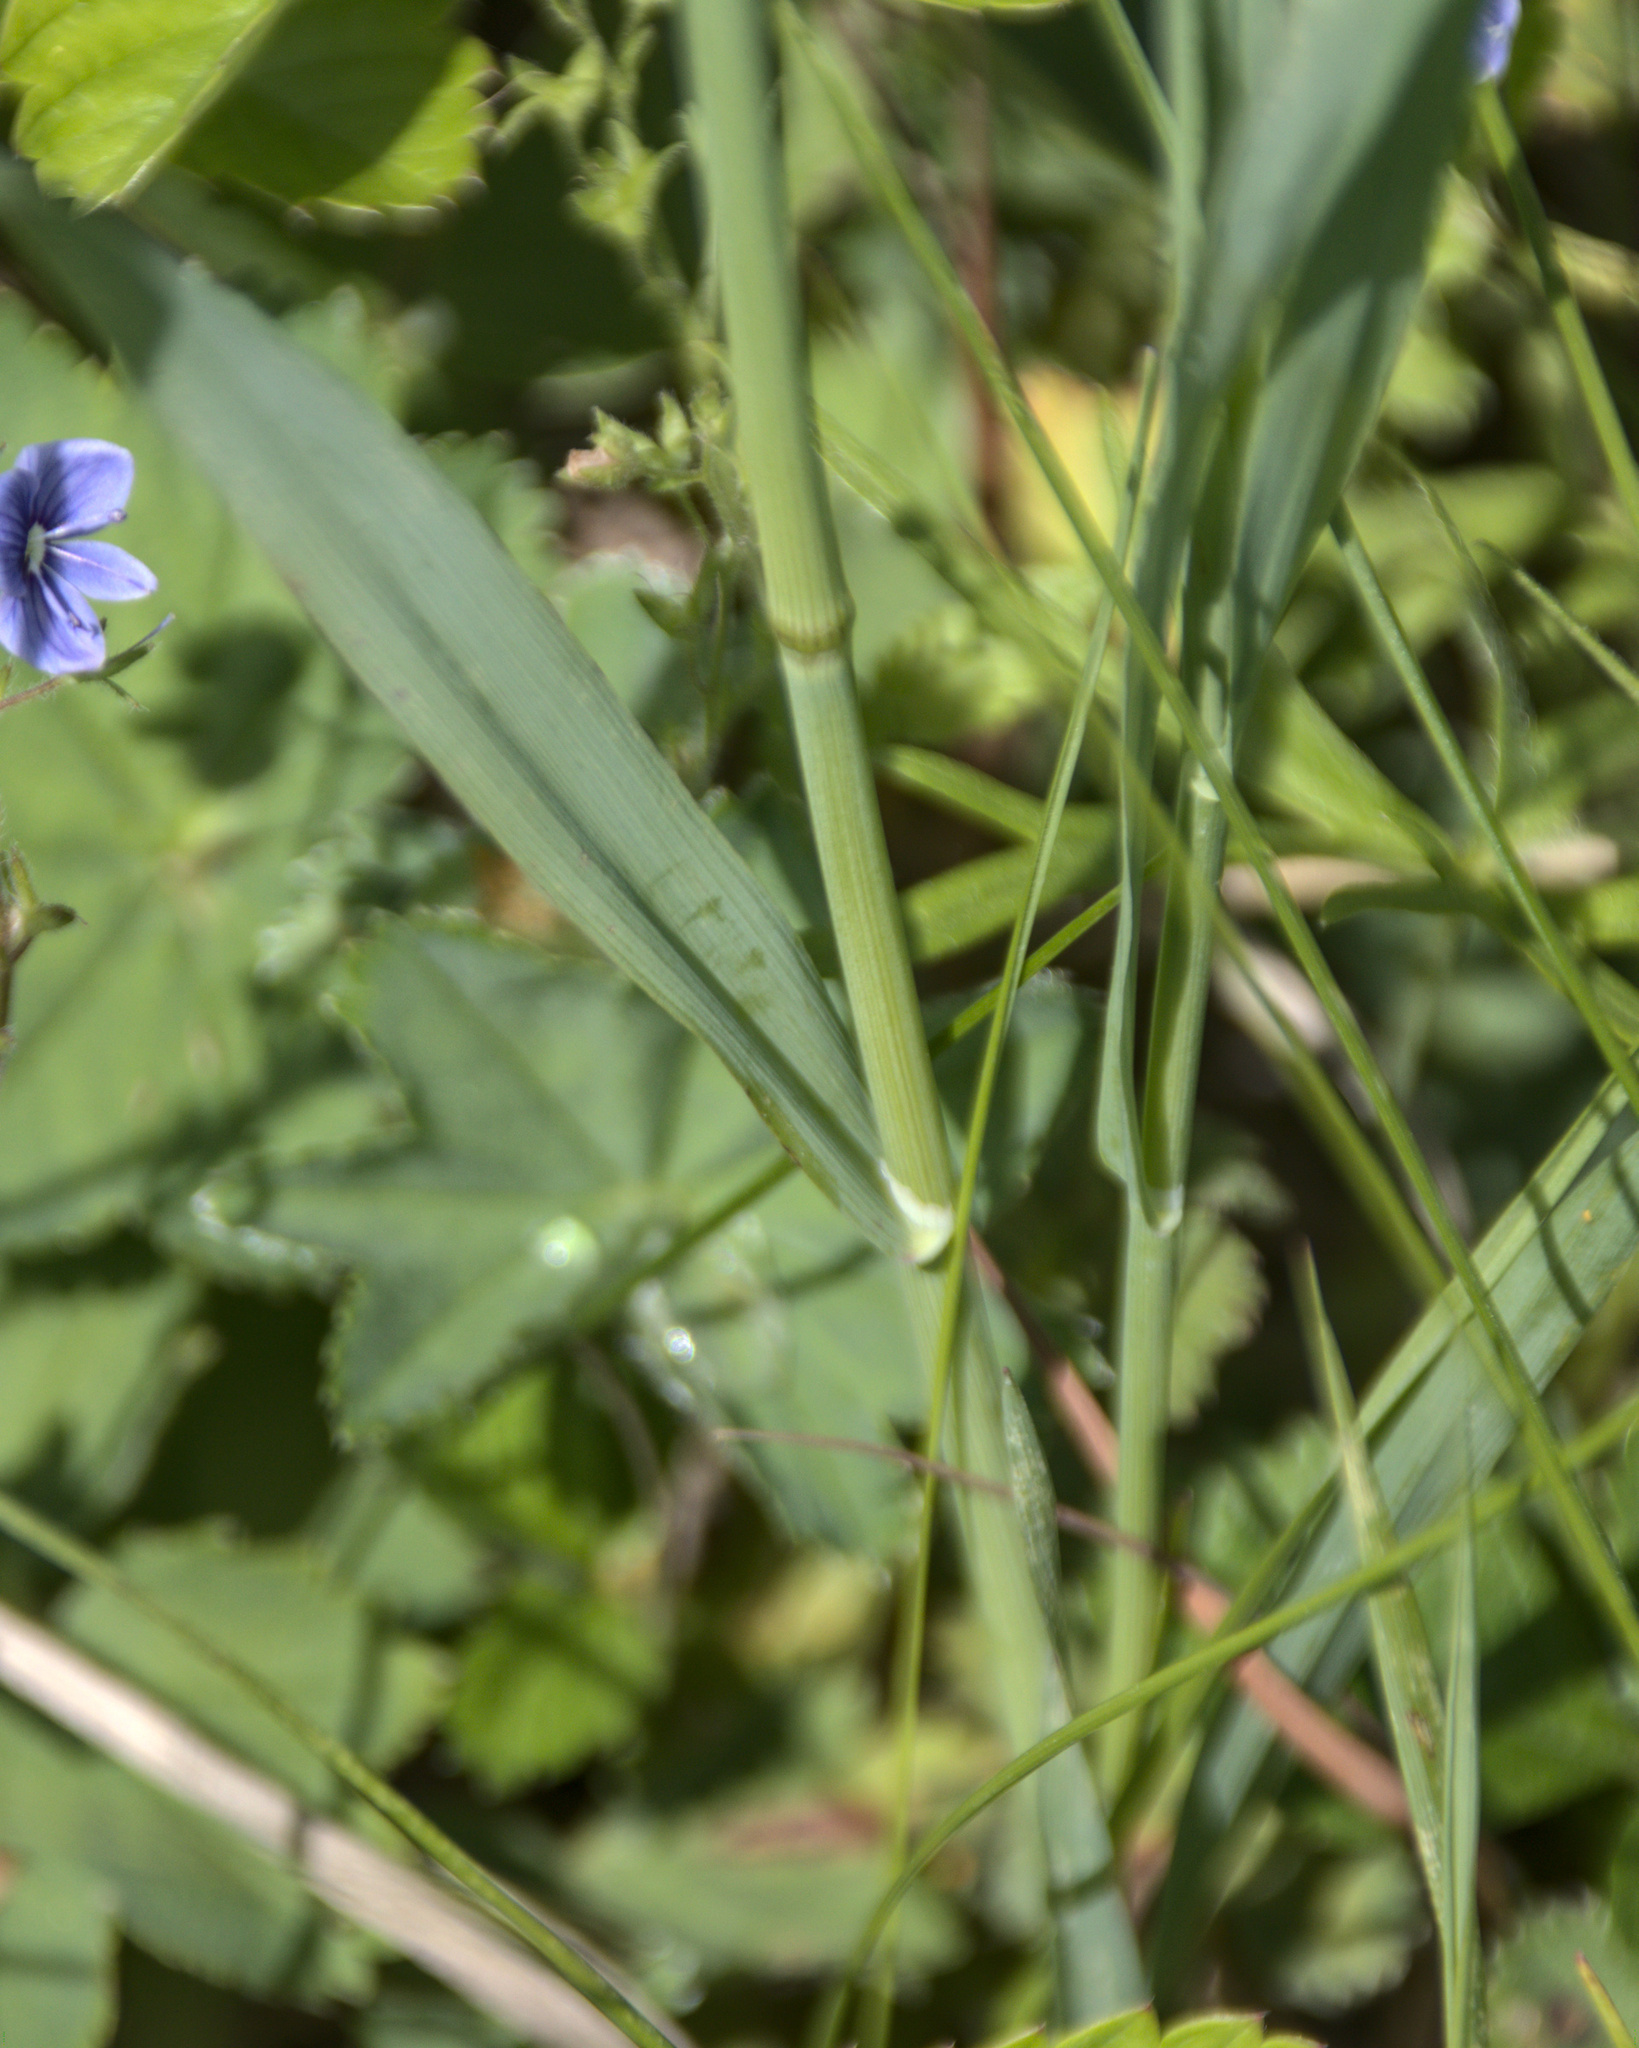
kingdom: Plantae
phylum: Tracheophyta
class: Liliopsida
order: Poales
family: Poaceae
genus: Phleum
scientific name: Phleum pratense
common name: Timothy grass
